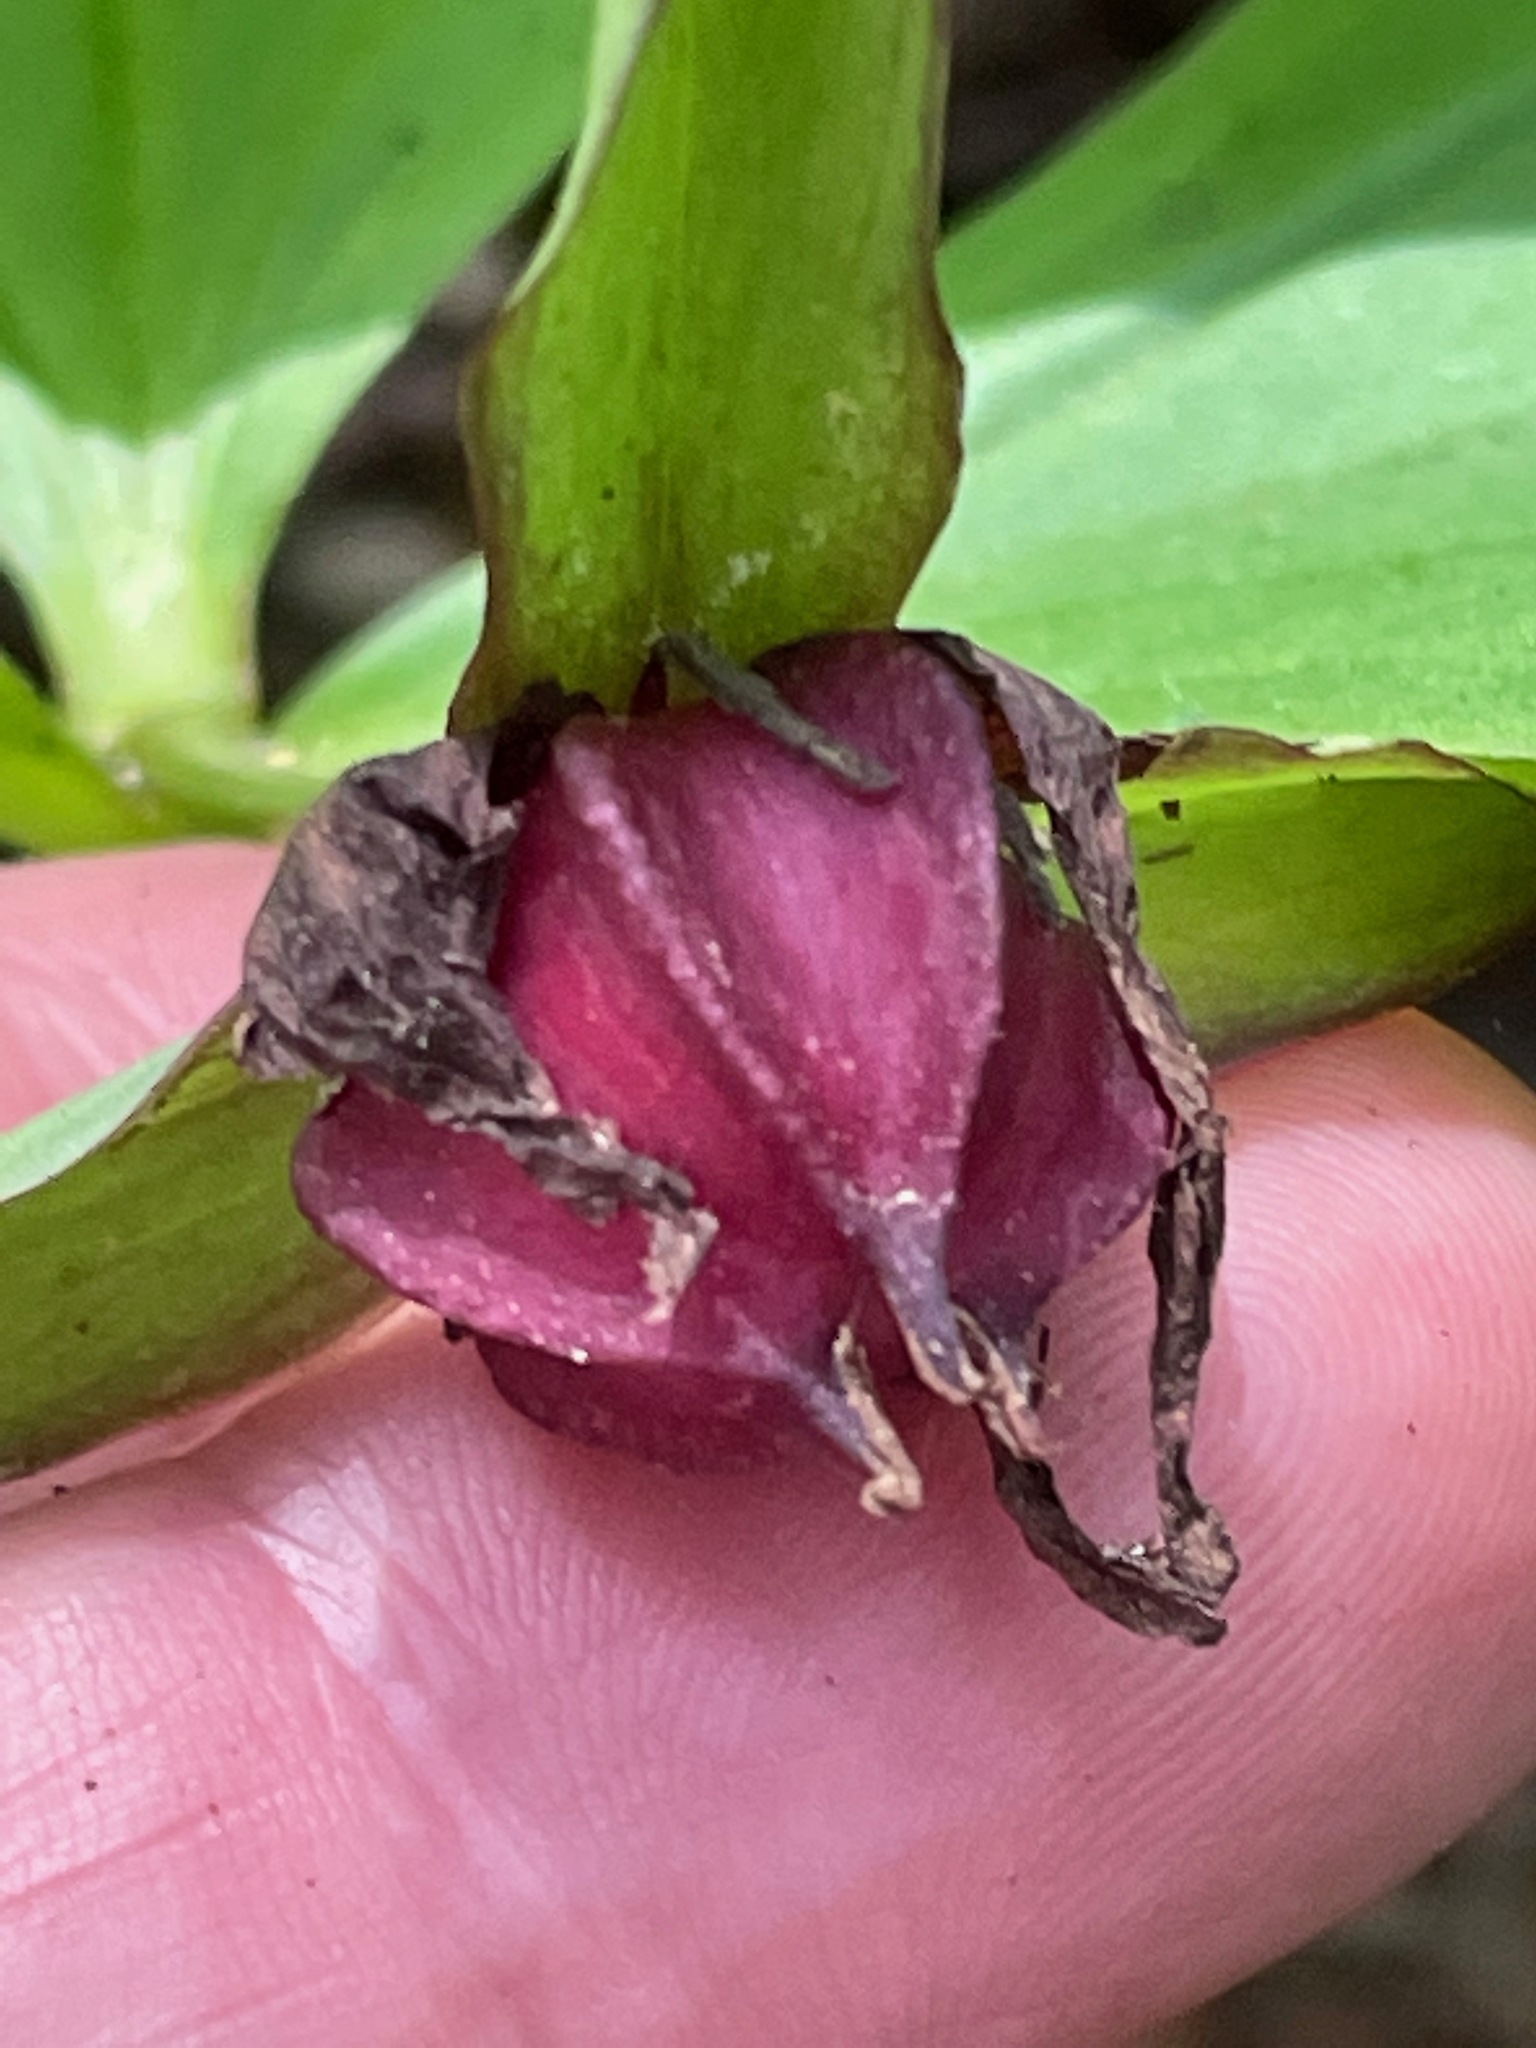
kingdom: Plantae
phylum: Tracheophyta
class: Liliopsida
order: Liliales
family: Melanthiaceae
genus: Trillium
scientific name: Trillium erectum
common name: Purple trillium
